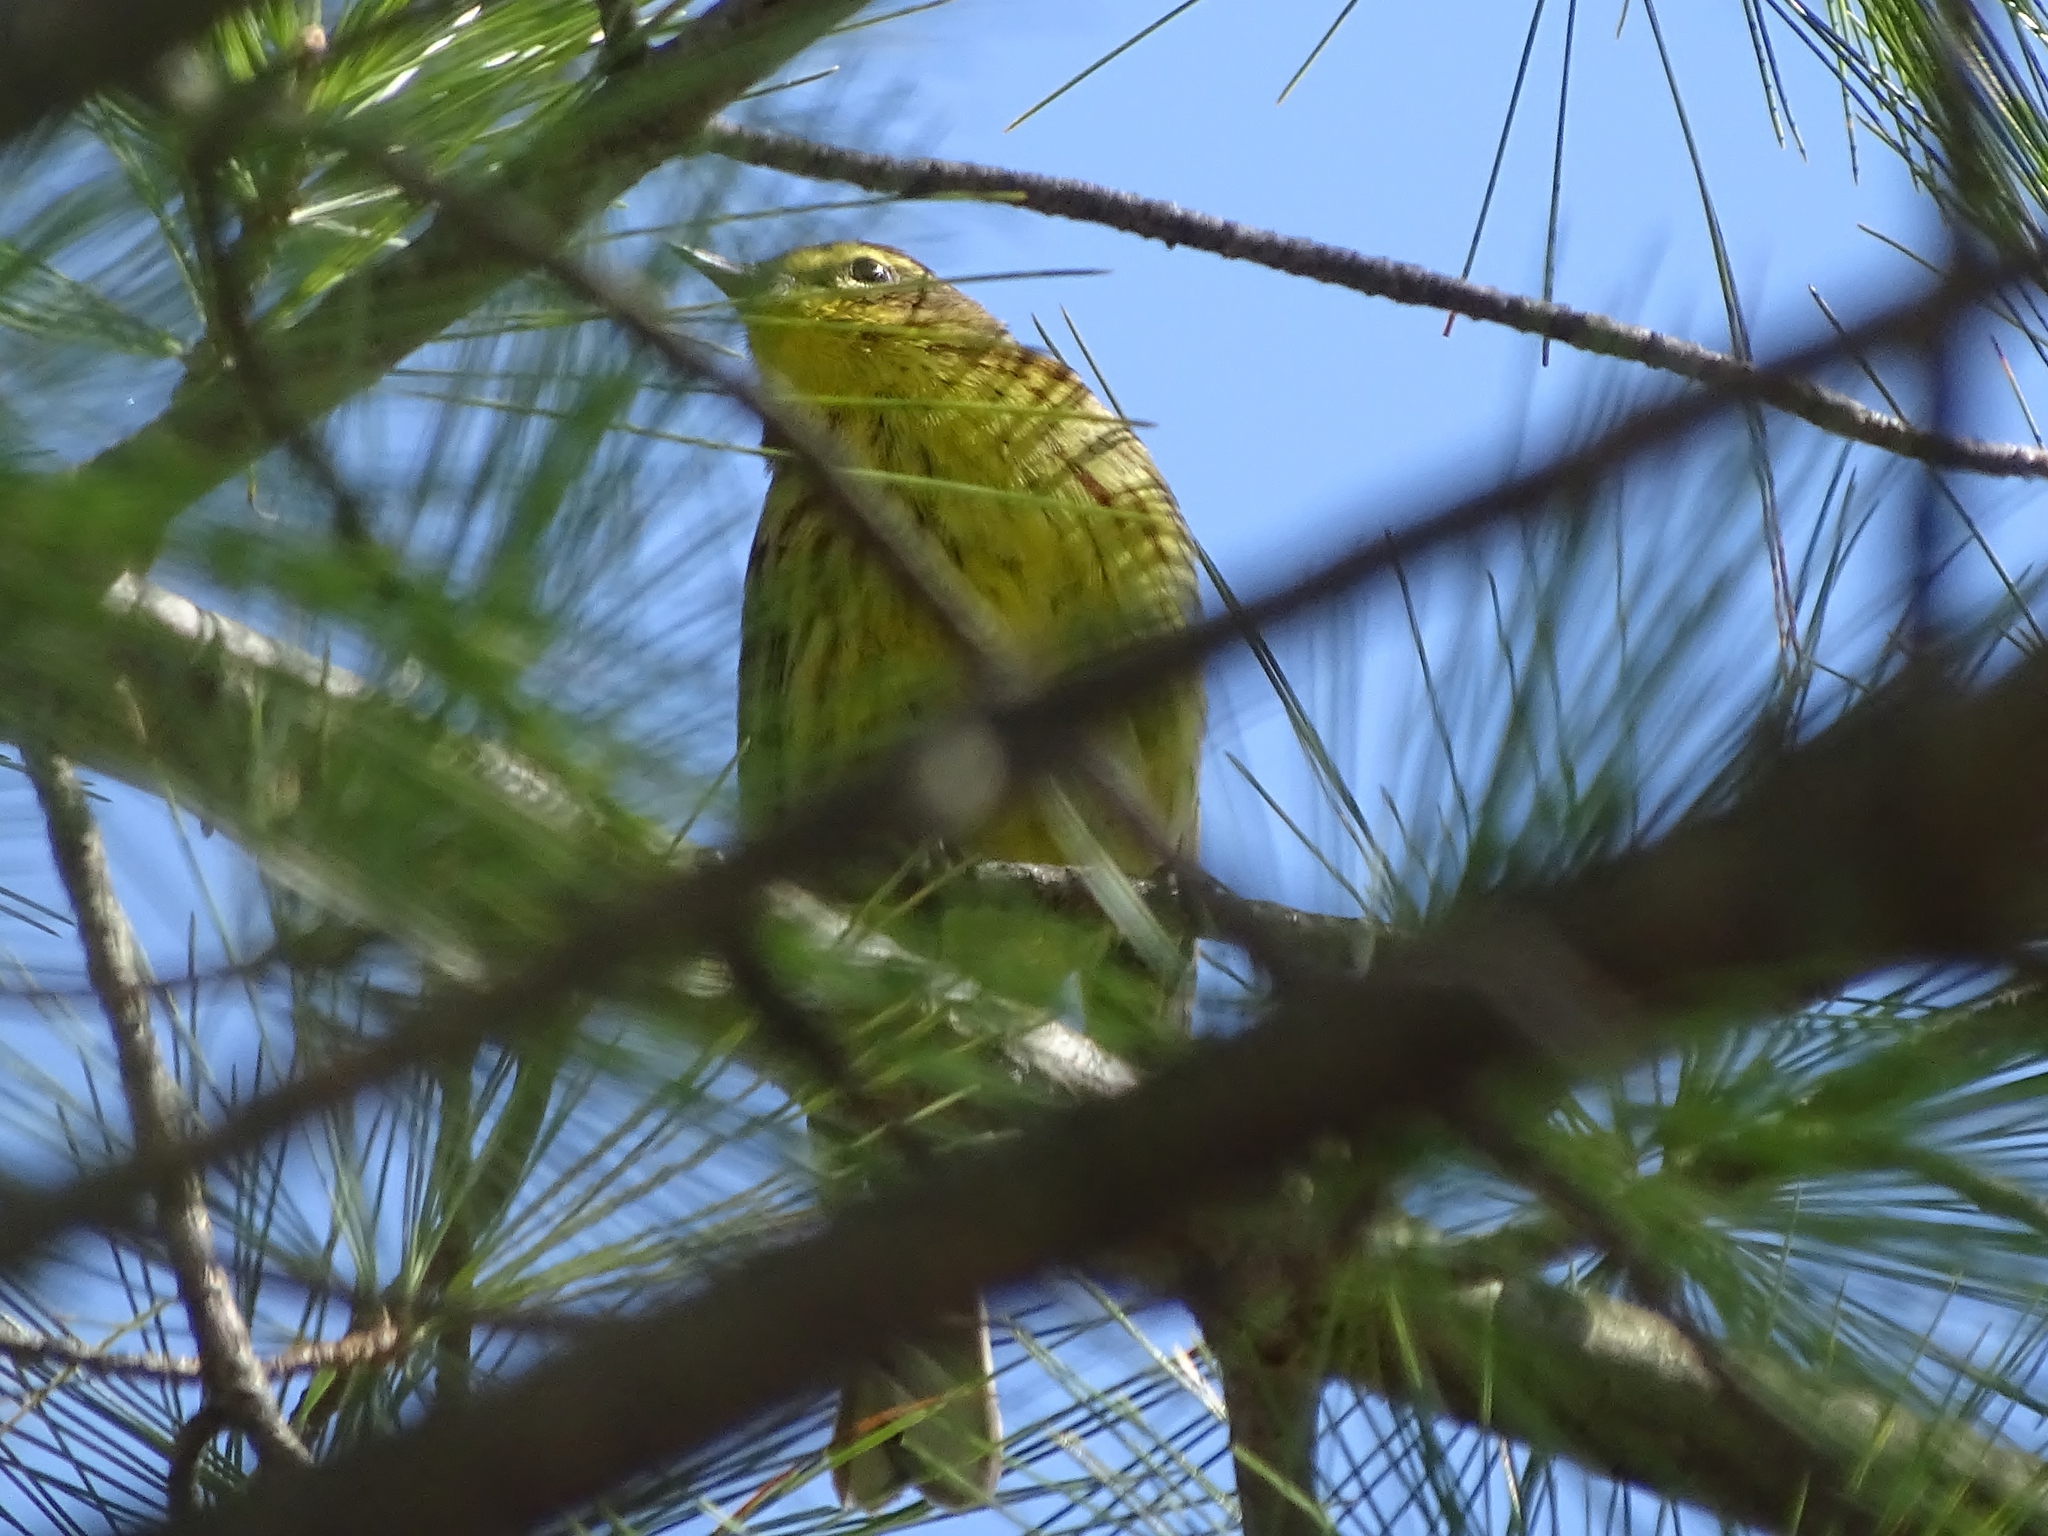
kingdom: Animalia
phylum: Chordata
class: Aves
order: Passeriformes
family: Parulidae
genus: Setophaga
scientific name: Setophaga palmarum
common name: Palm warbler
